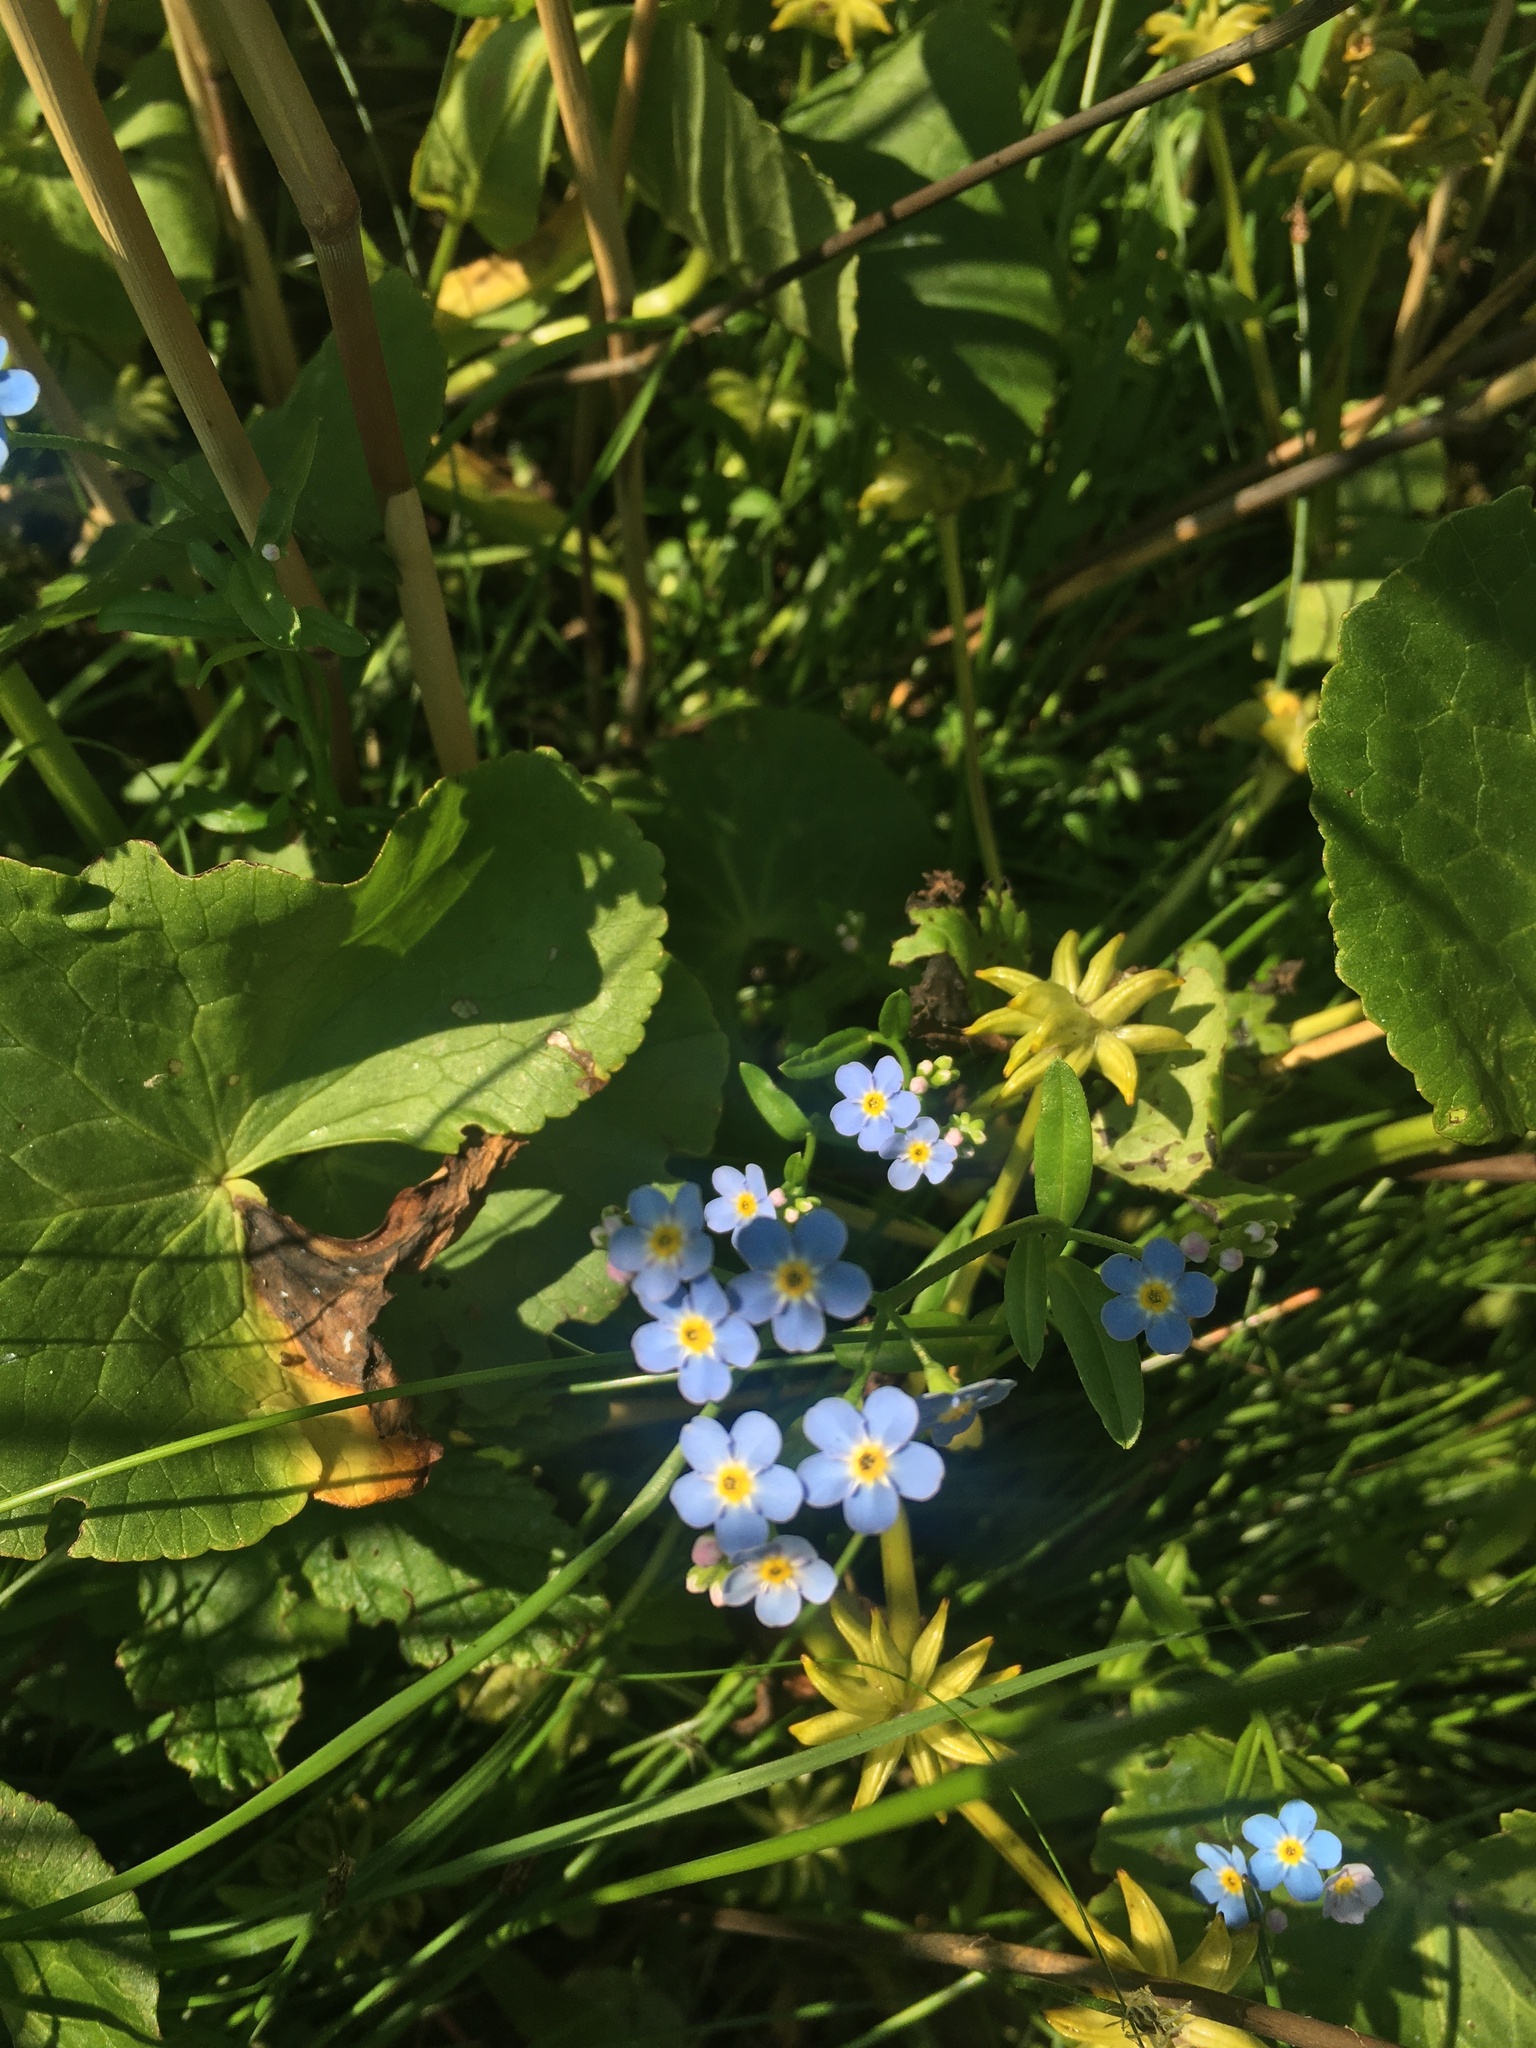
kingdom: Plantae
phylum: Tracheophyta
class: Magnoliopsida
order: Boraginales
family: Boraginaceae
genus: Myosotis
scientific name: Myosotis scorpioides
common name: Water forget-me-not
